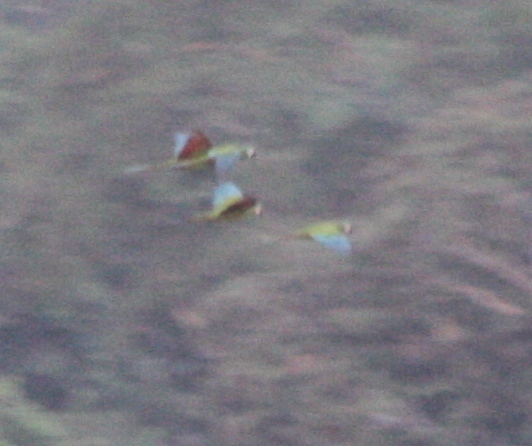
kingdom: Animalia
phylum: Chordata
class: Aves
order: Psittaciformes
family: Psittacidae
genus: Ara
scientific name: Ara severus
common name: Chestnut-fronted macaw
